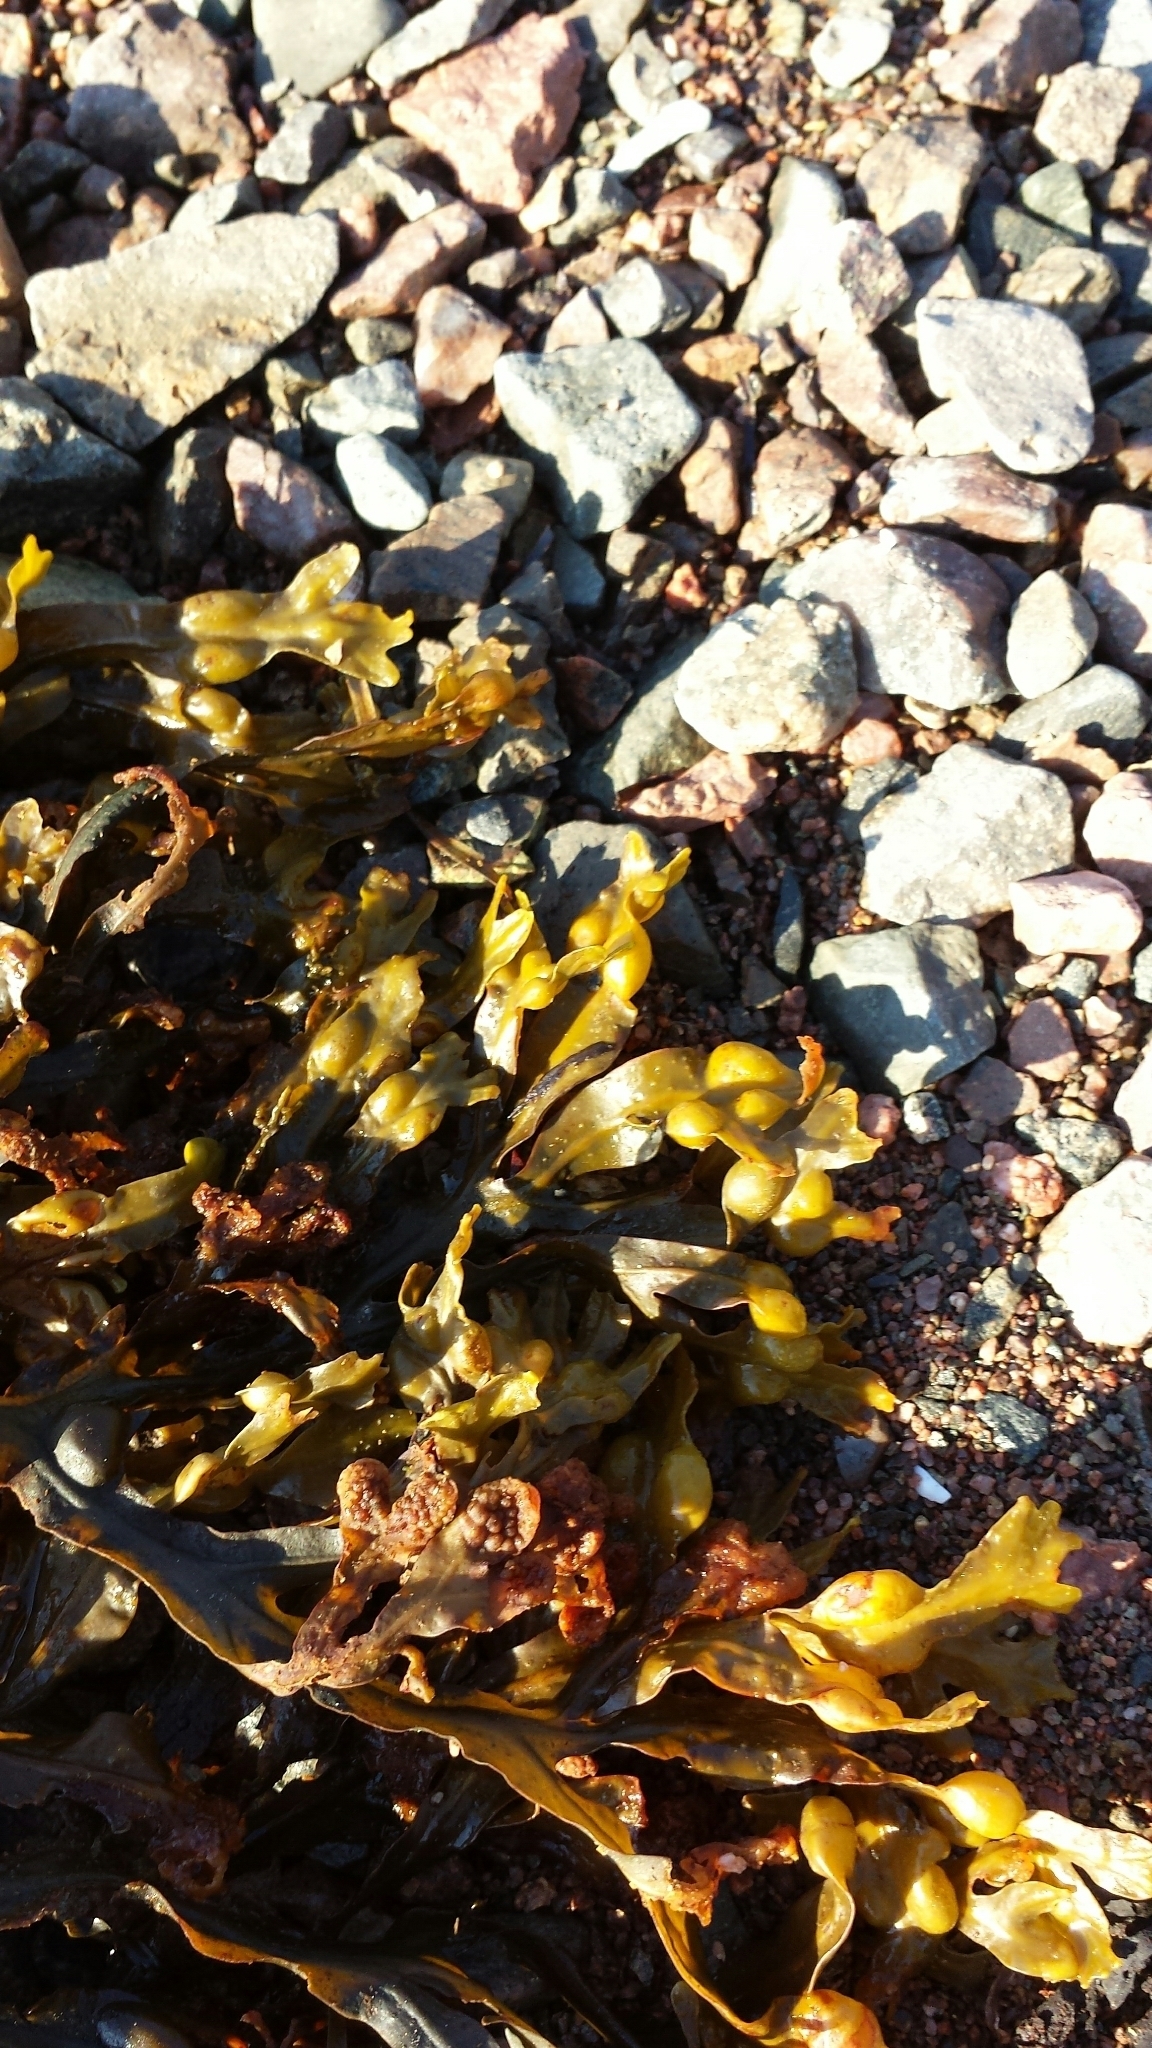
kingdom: Chromista
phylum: Ochrophyta
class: Phaeophyceae
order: Fucales
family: Fucaceae
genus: Fucus
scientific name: Fucus vesiculosus
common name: Bladder wrack
